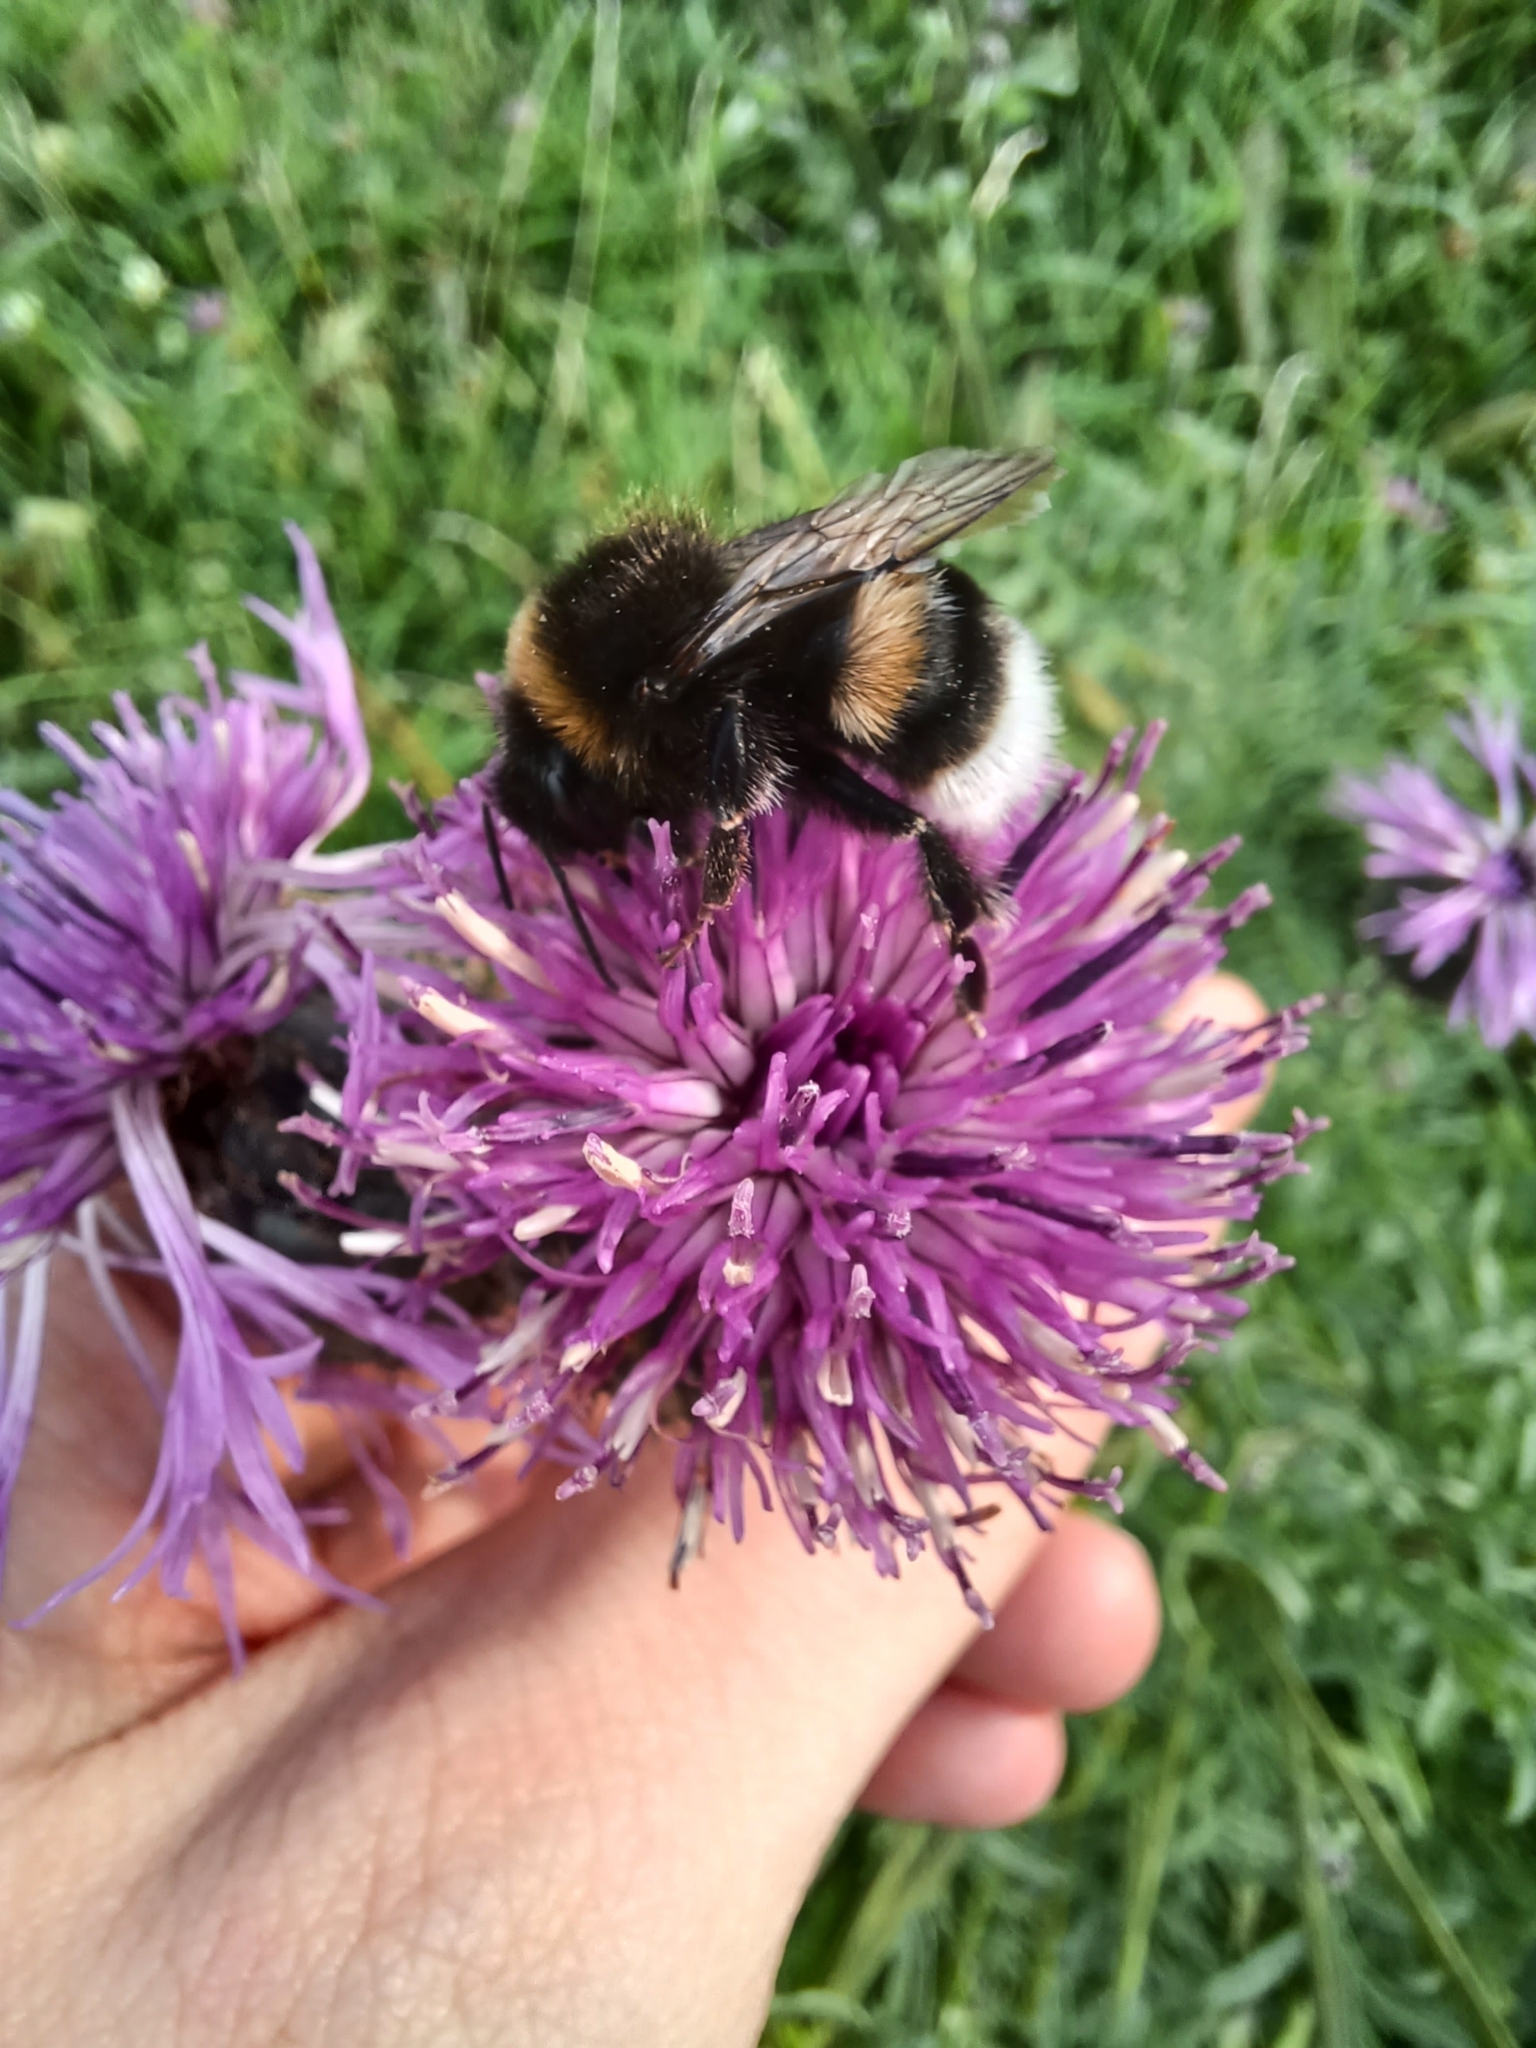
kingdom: Animalia
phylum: Arthropoda
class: Insecta
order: Hymenoptera
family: Apidae
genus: Bombus
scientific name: Bombus terrestris
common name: Buff-tailed bumblebee
